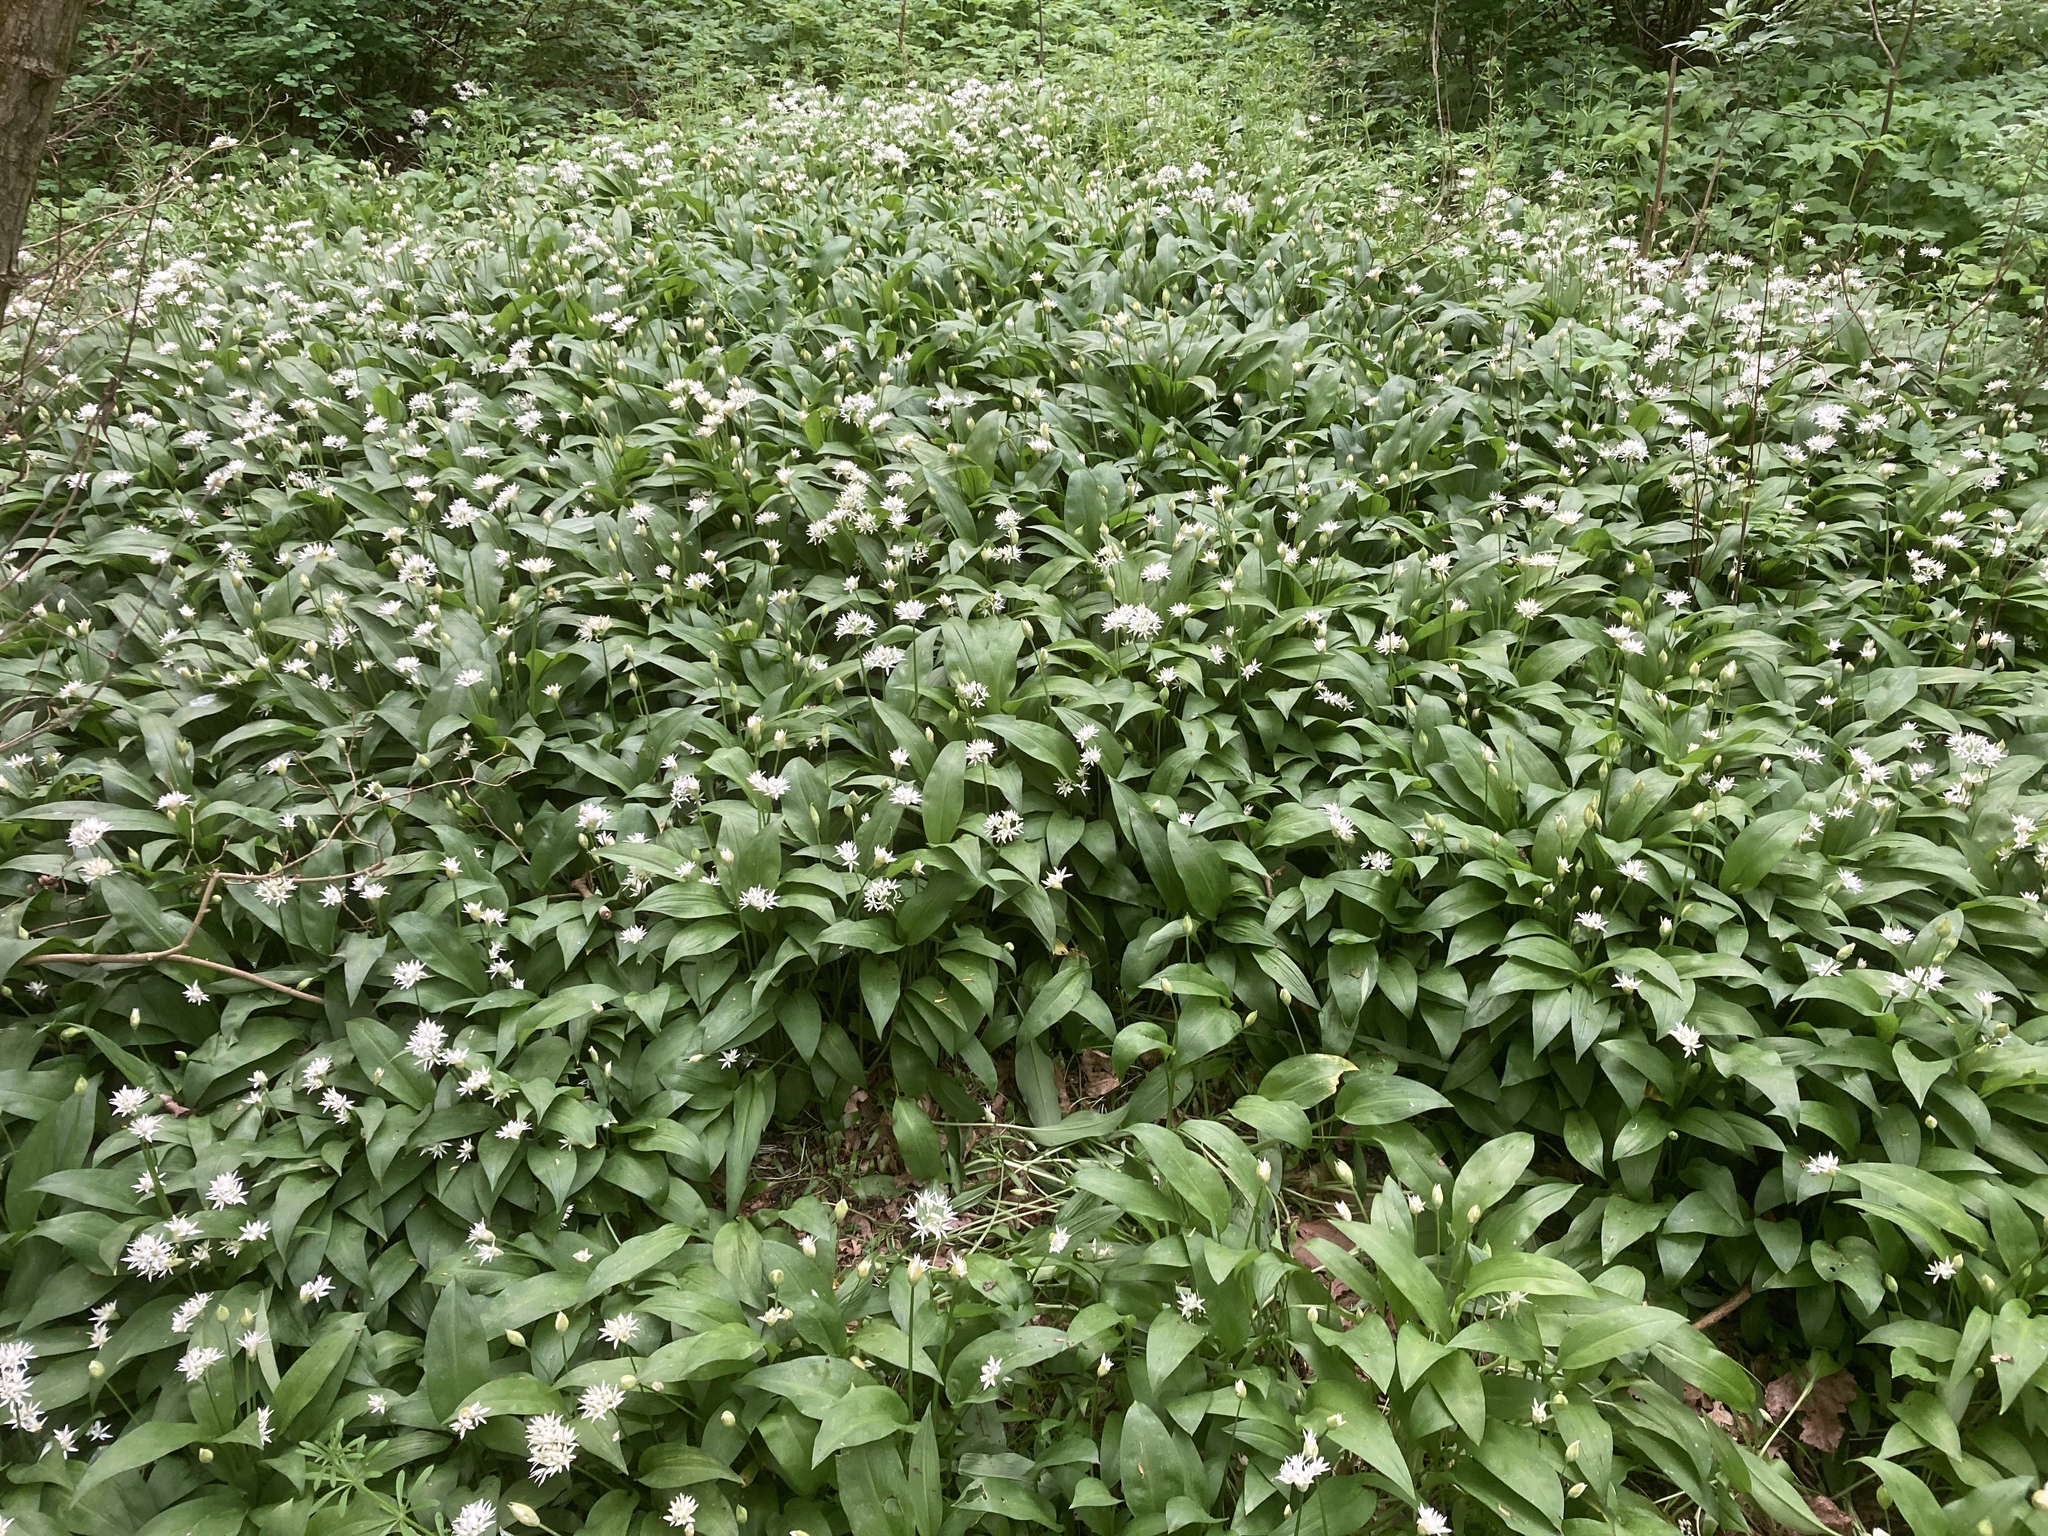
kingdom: Plantae
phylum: Tracheophyta
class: Liliopsida
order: Asparagales
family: Amaryllidaceae
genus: Allium
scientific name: Allium ursinum
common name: Ramsons
